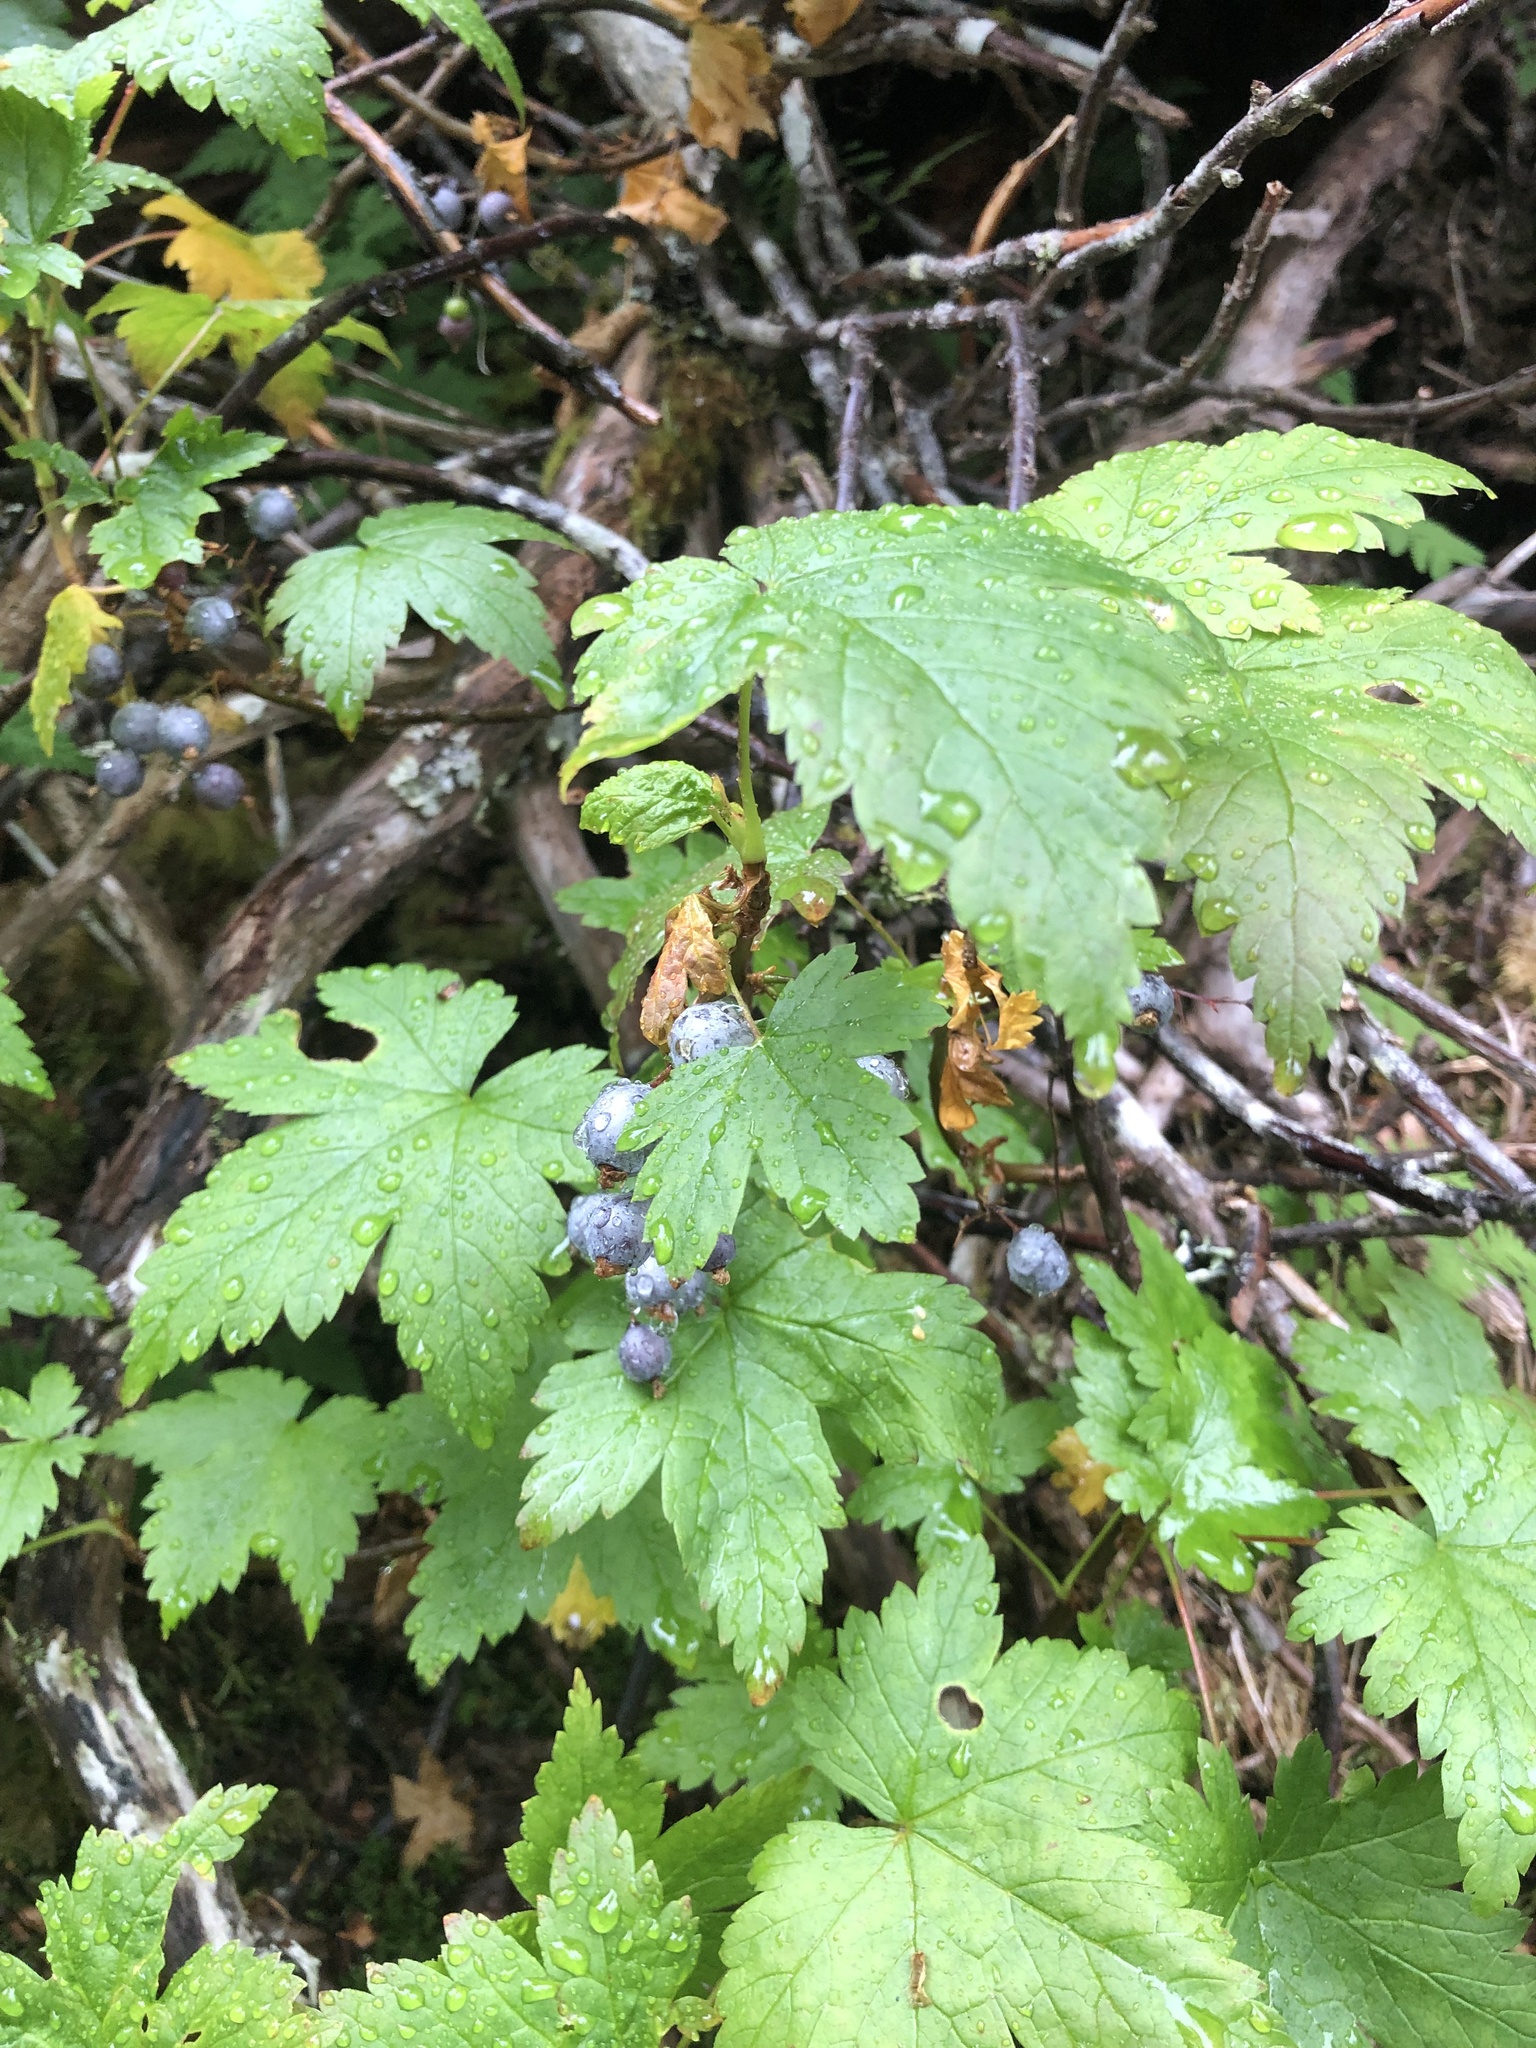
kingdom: Plantae
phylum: Tracheophyta
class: Magnoliopsida
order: Saxifragales
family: Grossulariaceae
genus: Ribes
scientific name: Ribes bracteosum
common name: California black currant
